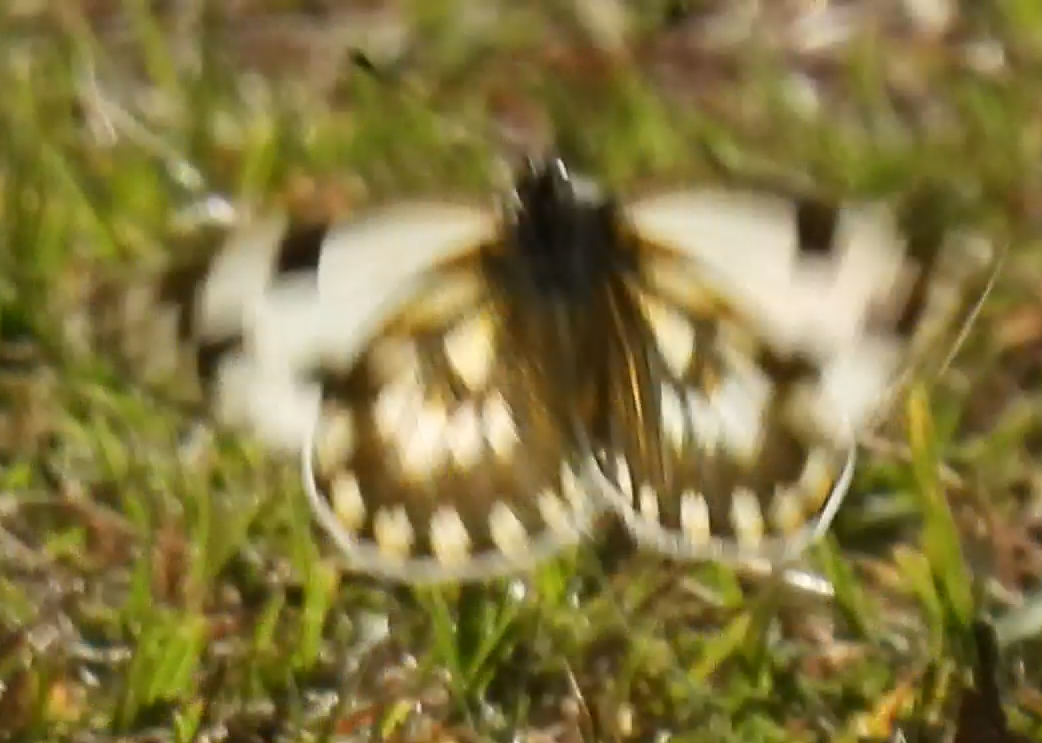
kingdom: Animalia
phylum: Arthropoda
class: Insecta
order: Lepidoptera
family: Pieridae
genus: Pontia
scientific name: Pontia helice
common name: Meadow white
